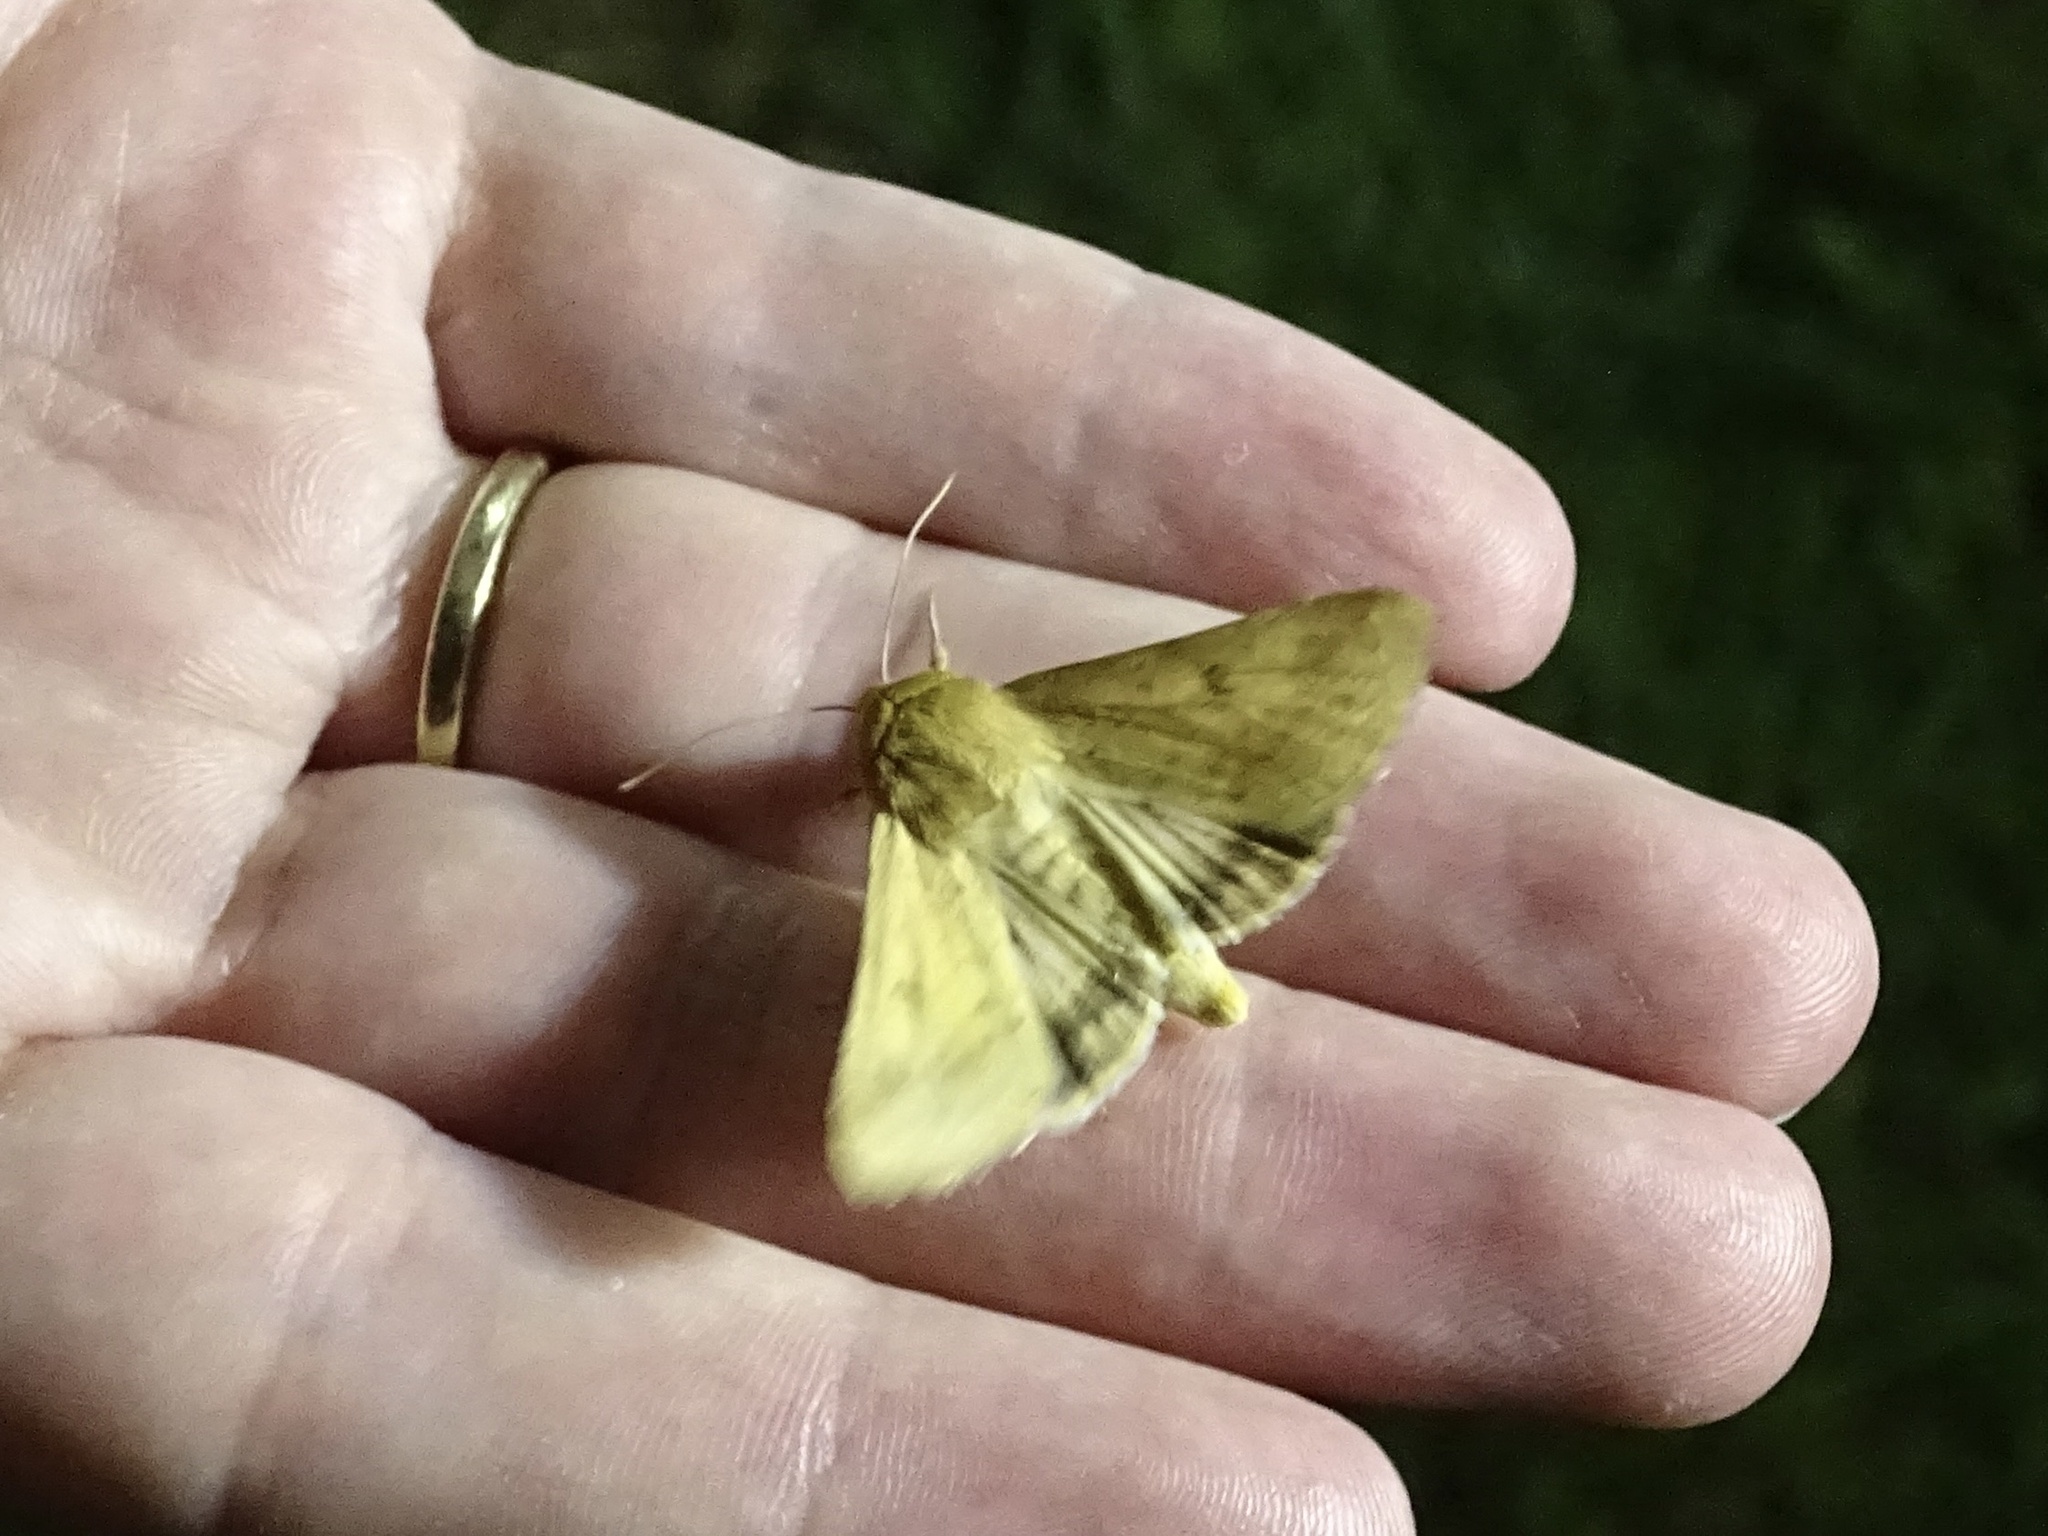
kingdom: Animalia
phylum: Arthropoda
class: Insecta
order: Lepidoptera
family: Noctuidae
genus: Helicoverpa
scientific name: Helicoverpa zea
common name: Bollworm
